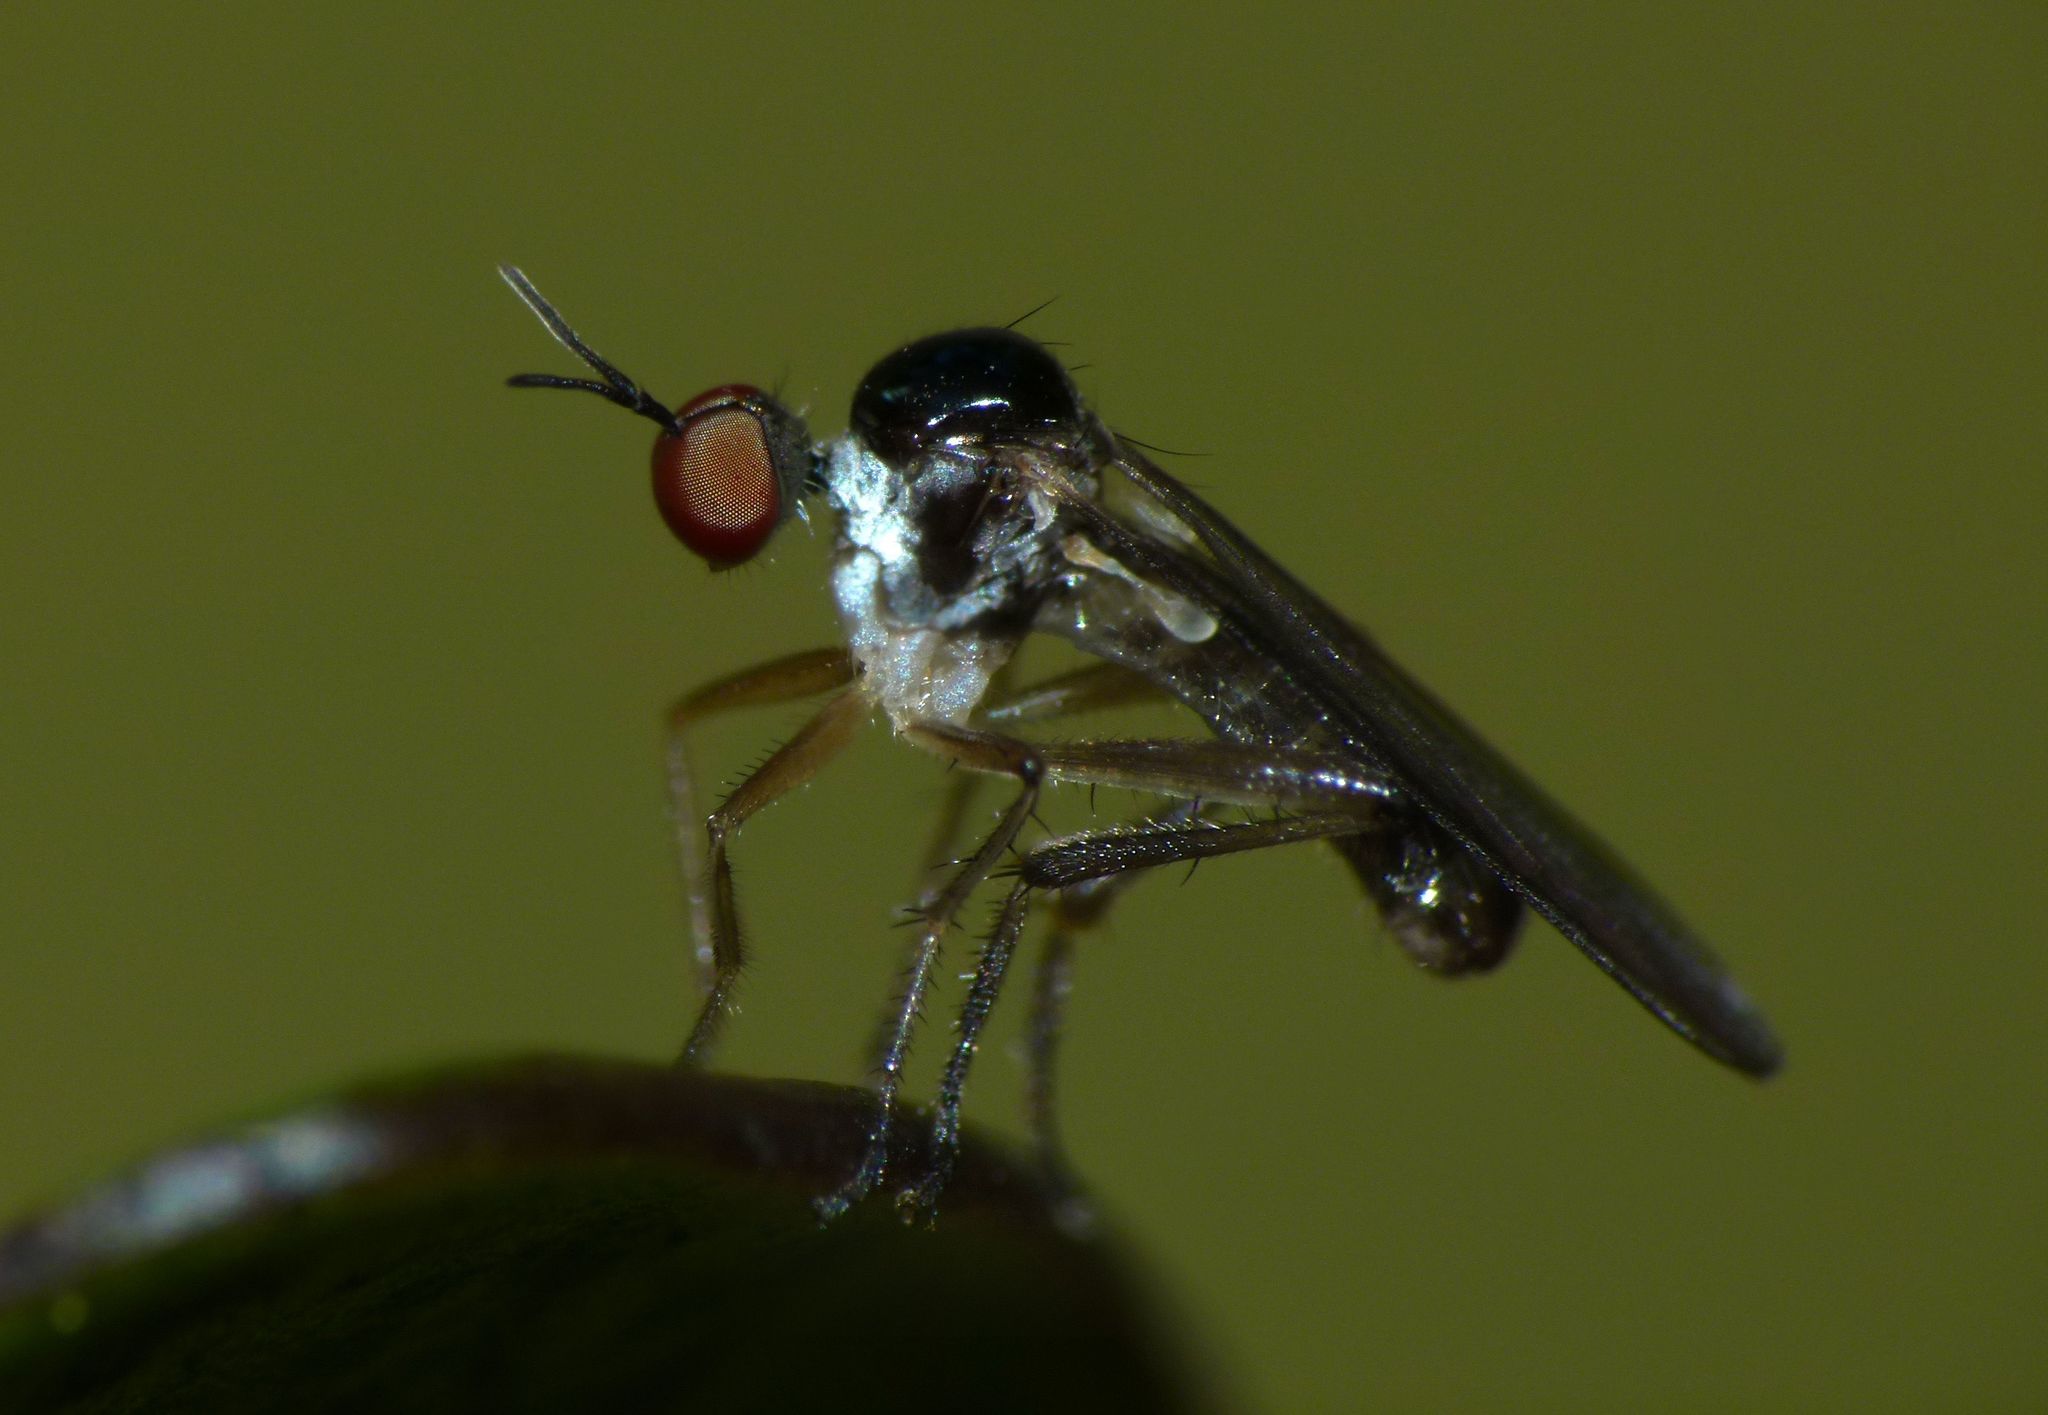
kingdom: Animalia
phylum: Arthropoda
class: Insecta
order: Diptera
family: Hybotidae
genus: Oropezella
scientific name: Oropezella tanycera
